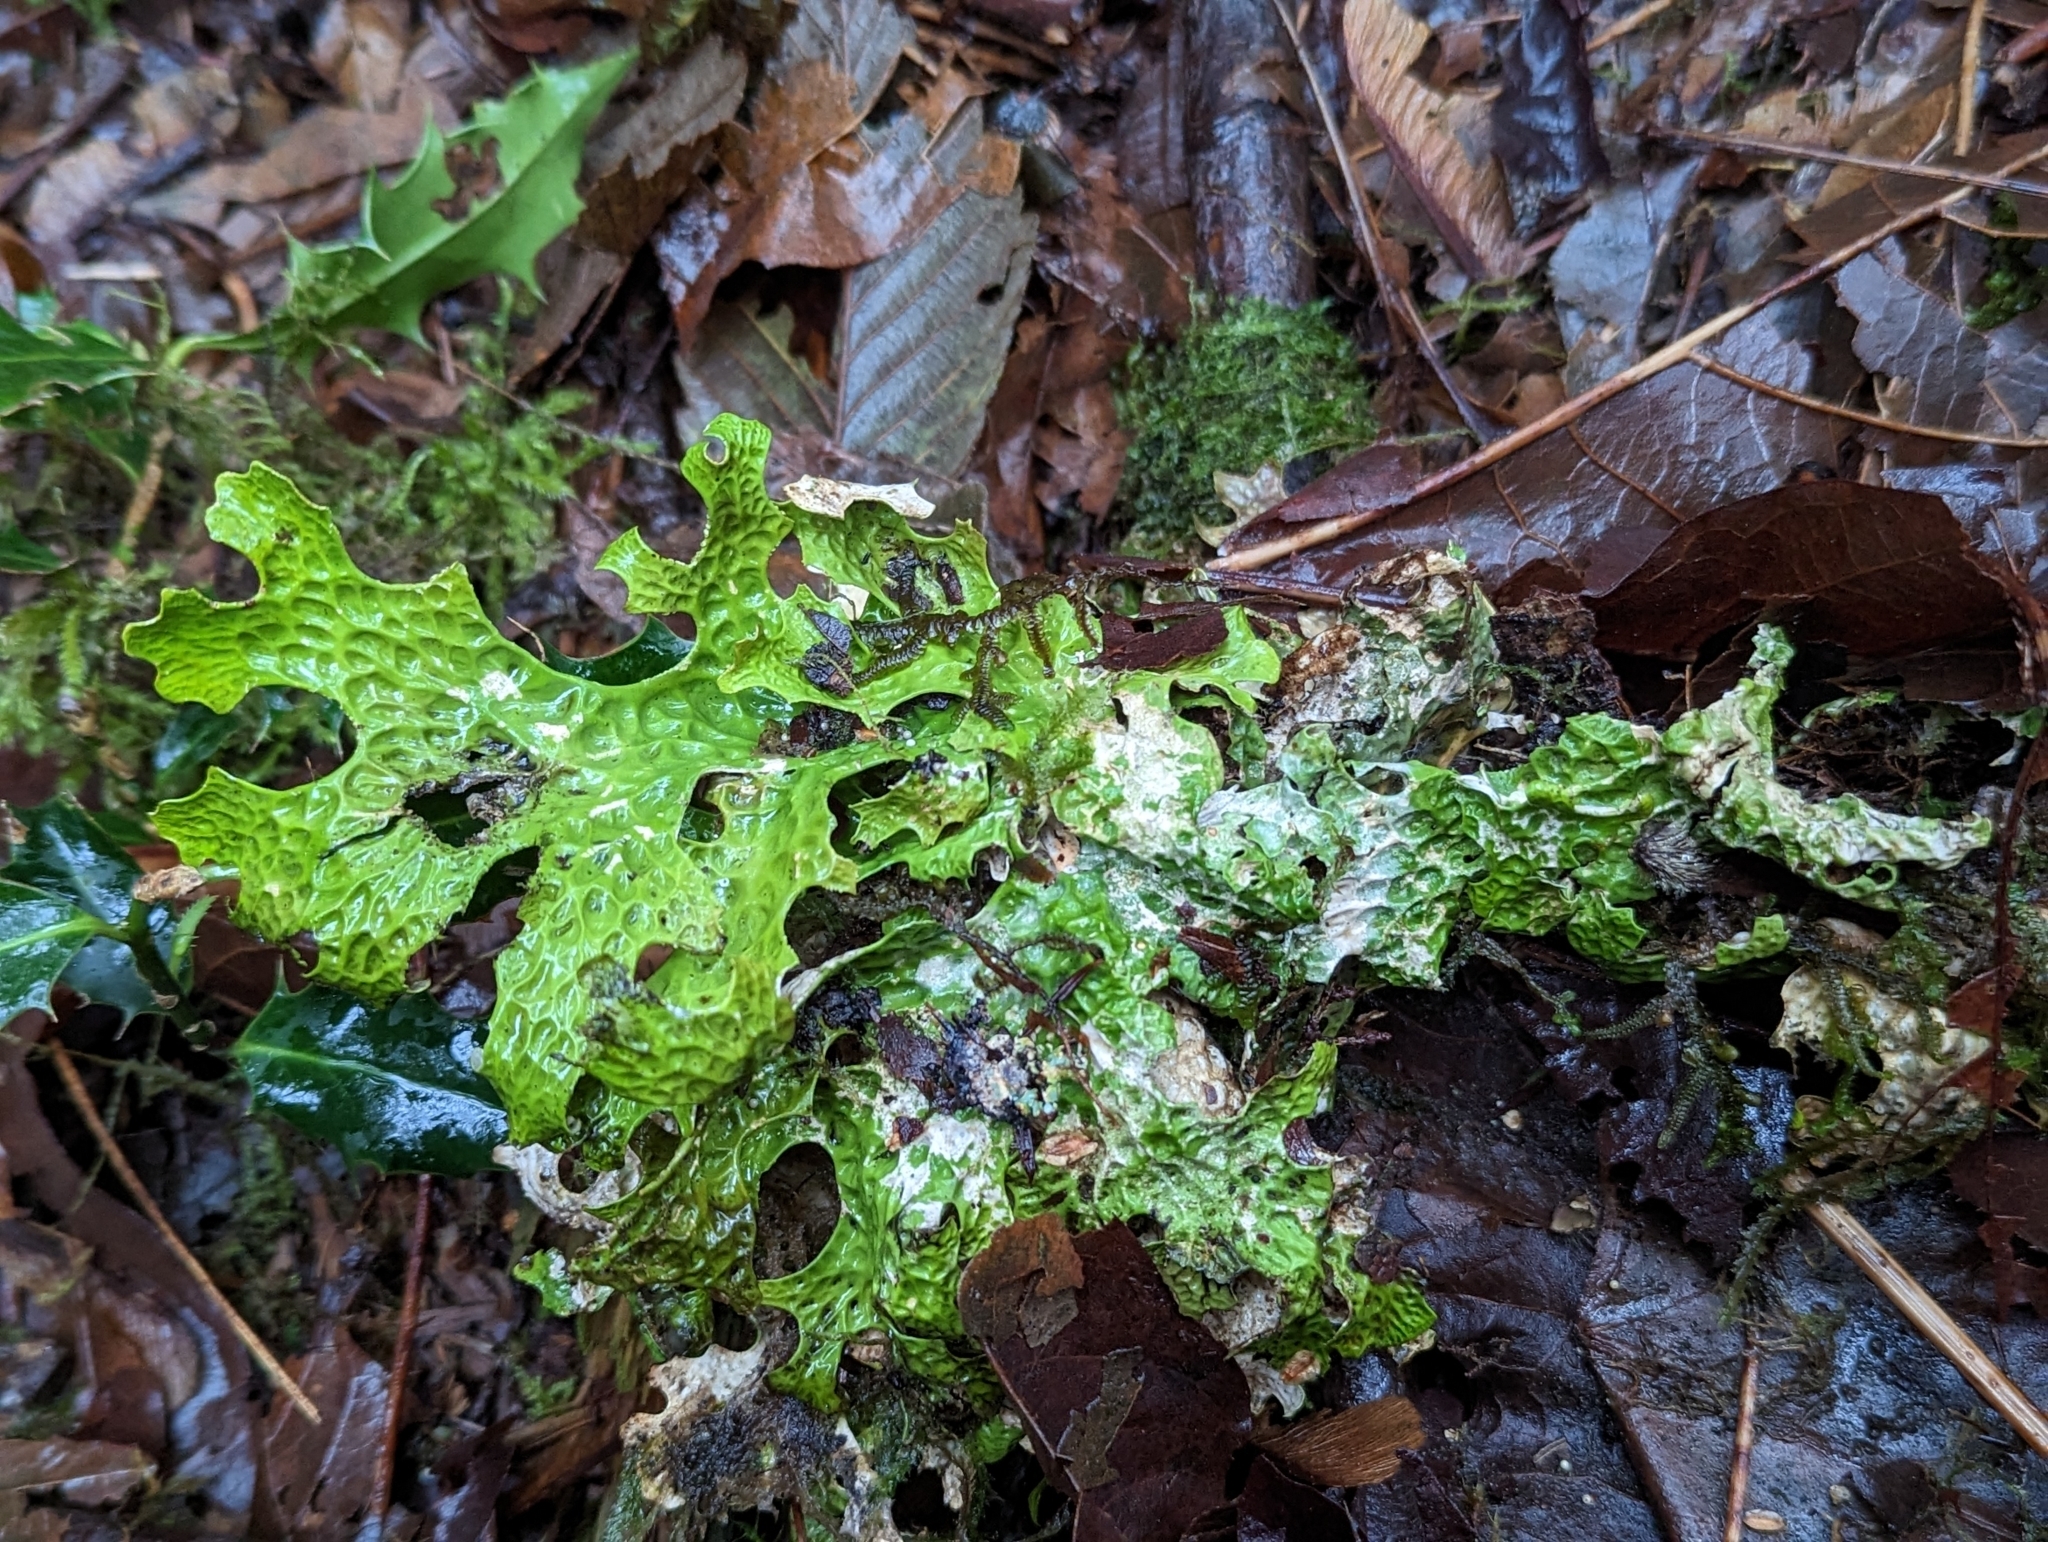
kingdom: Fungi
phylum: Ascomycota
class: Lecanoromycetes
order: Peltigerales
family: Lobariaceae
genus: Lobaria
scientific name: Lobaria pulmonaria
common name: Lungwort
